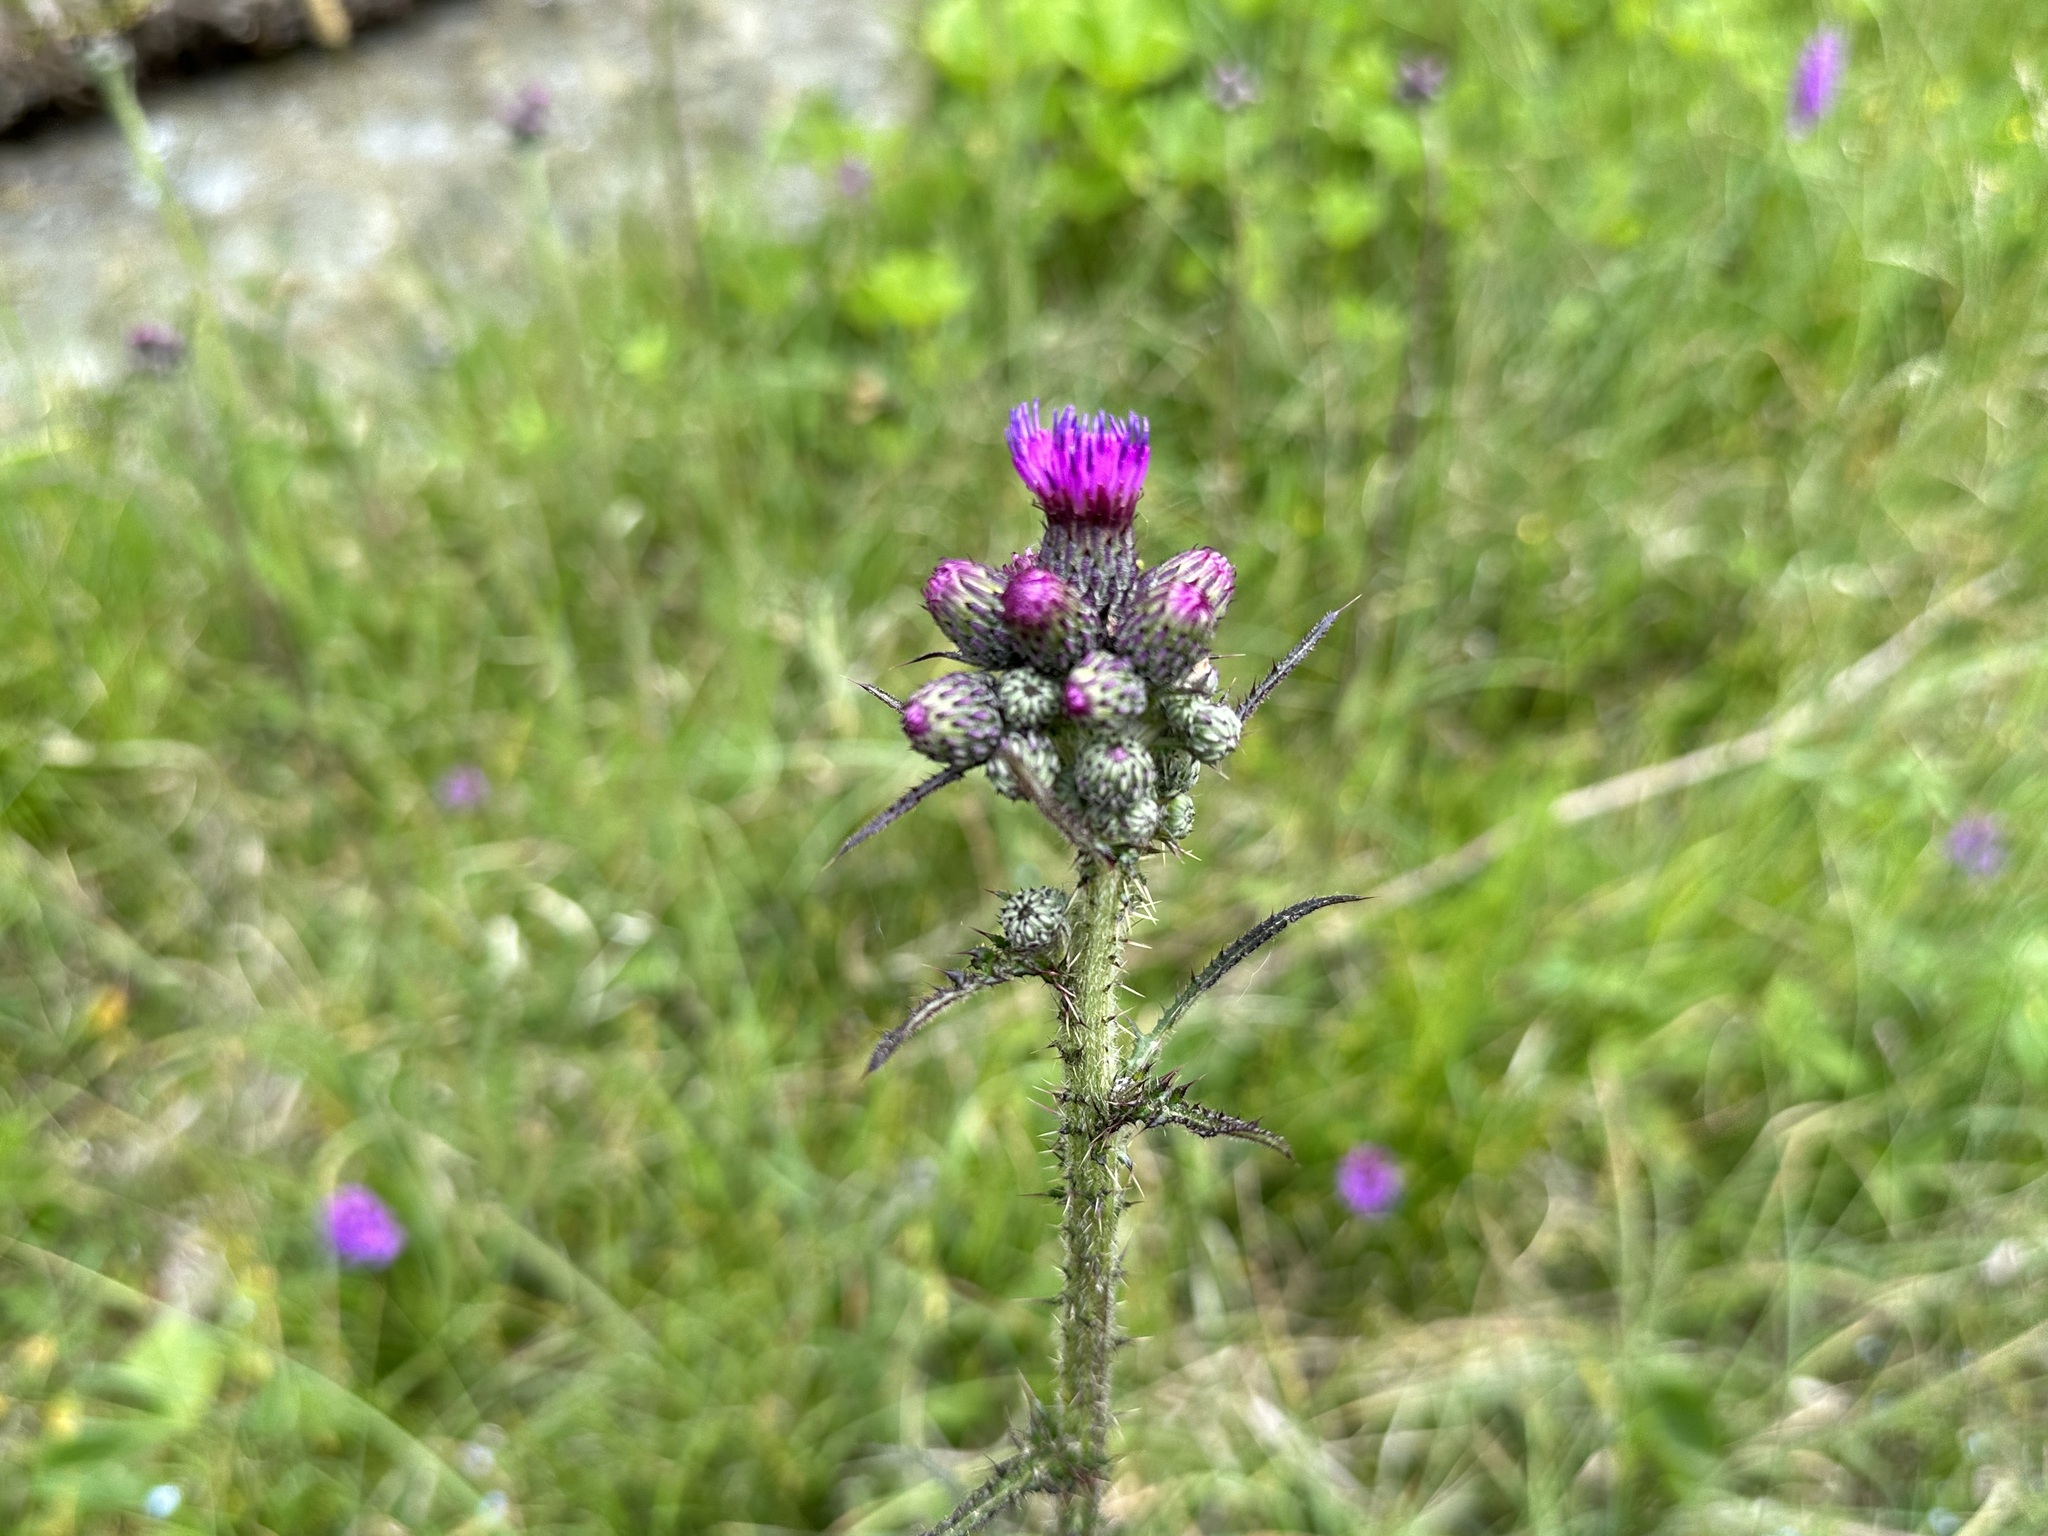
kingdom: Plantae
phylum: Tracheophyta
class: Magnoliopsida
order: Asterales
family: Asteraceae
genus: Cirsium
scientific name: Cirsium palustre
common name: Marsh thistle
